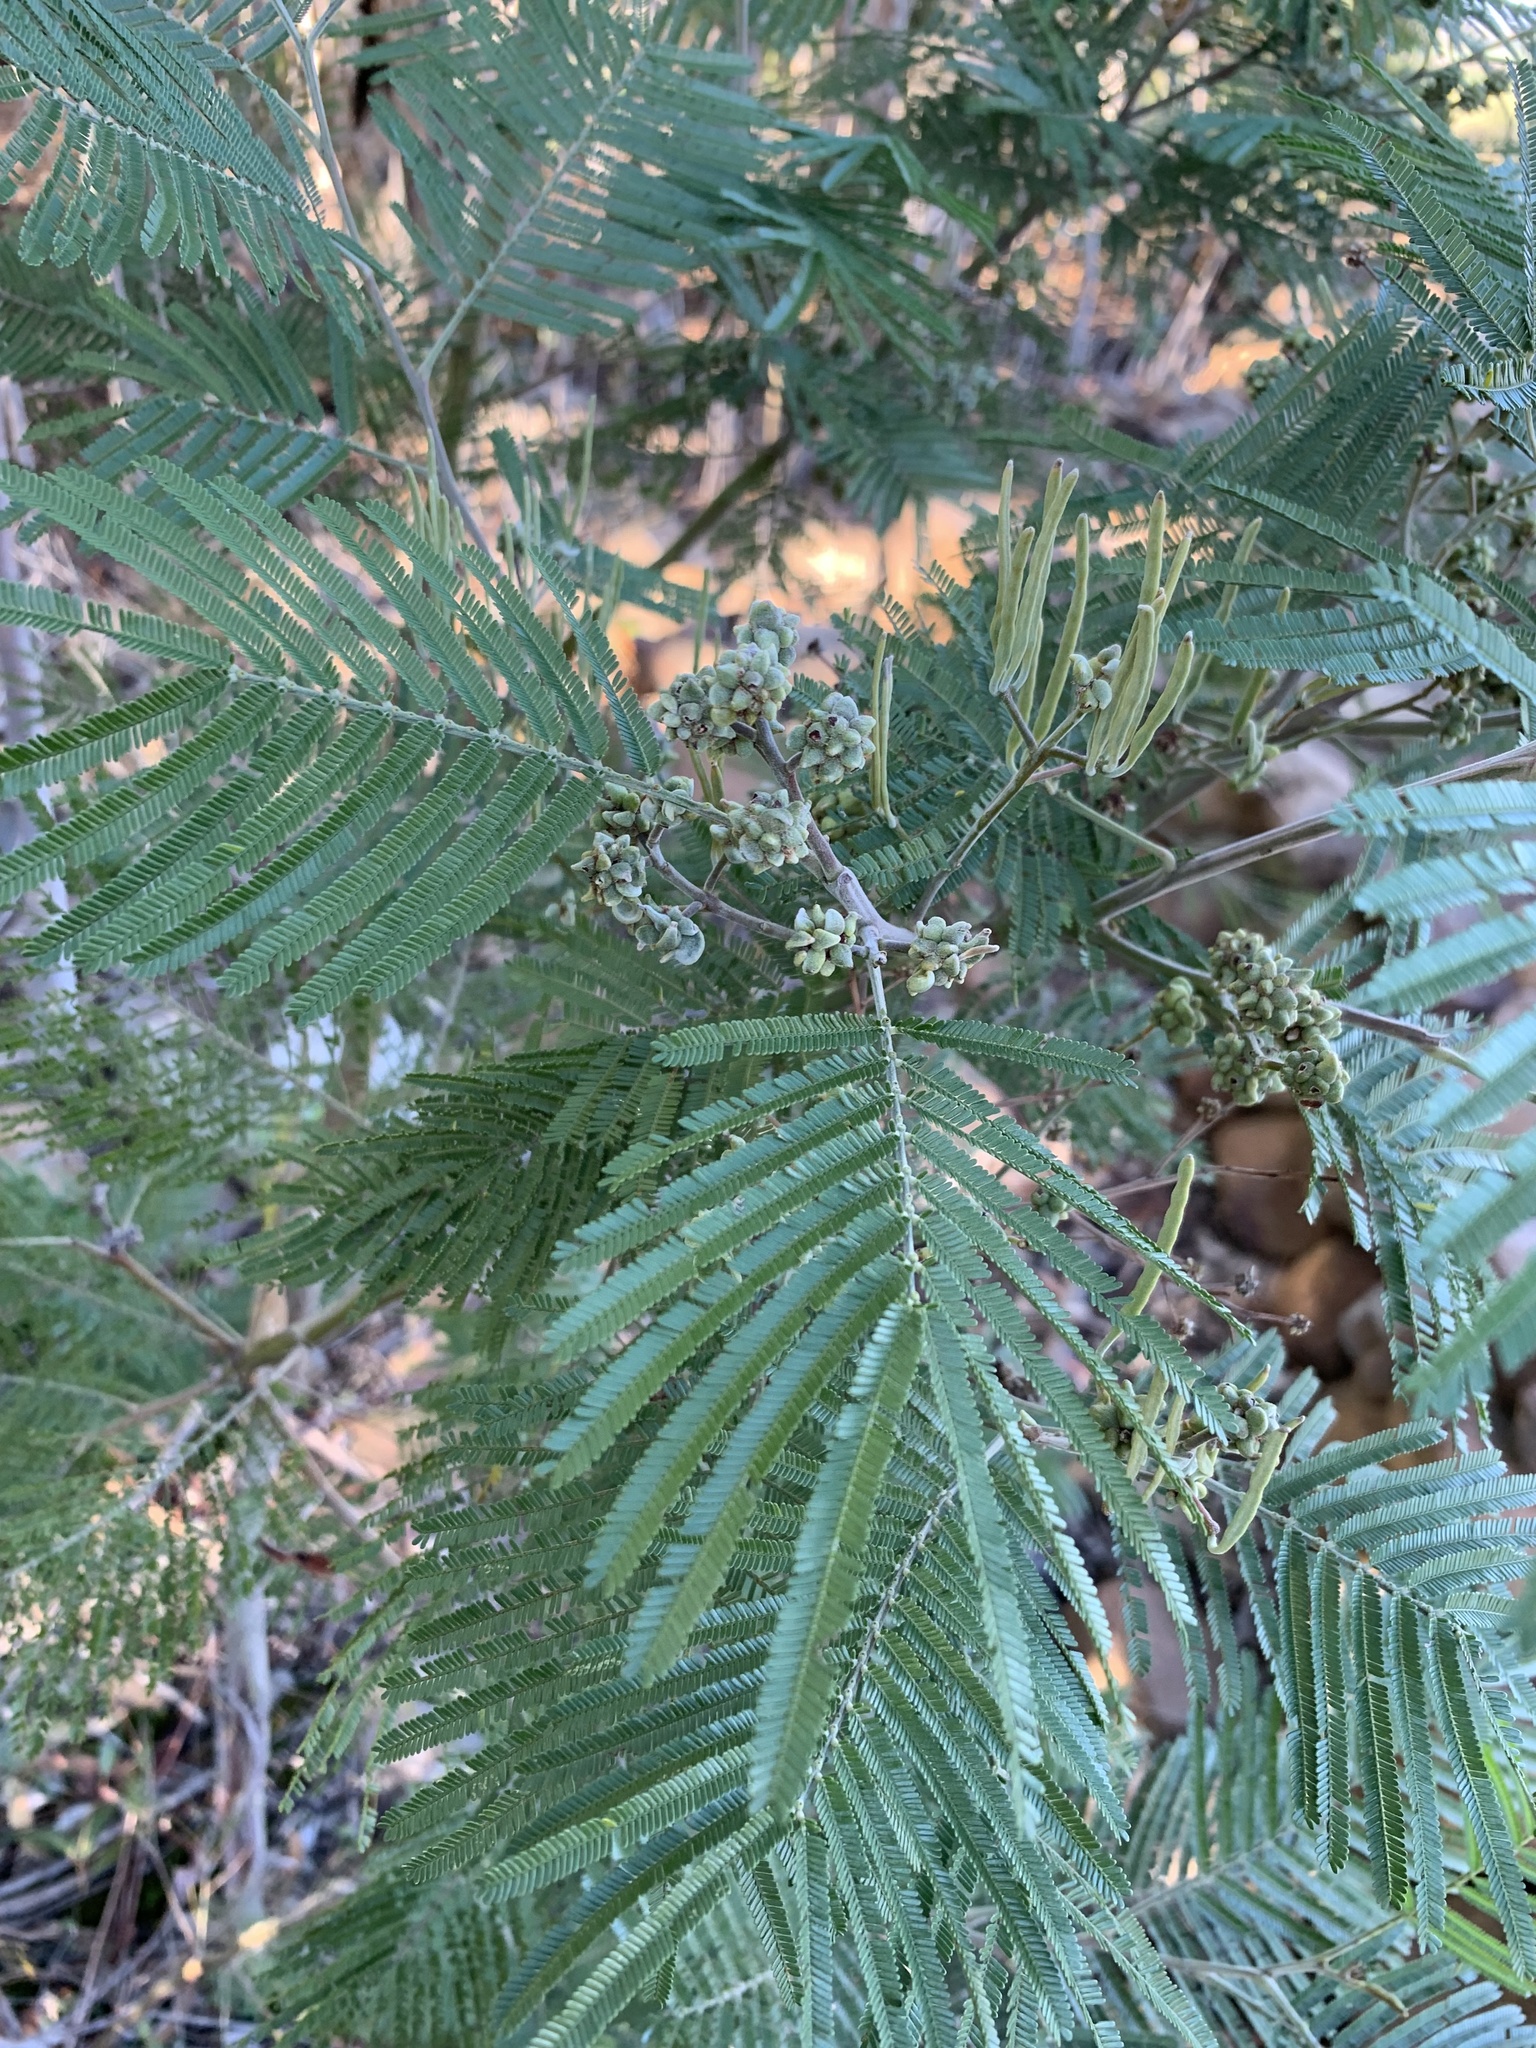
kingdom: Animalia
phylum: Arthropoda
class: Insecta
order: Diptera
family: Cecidomyiidae
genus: Dasineura
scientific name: Dasineura rubiformis
